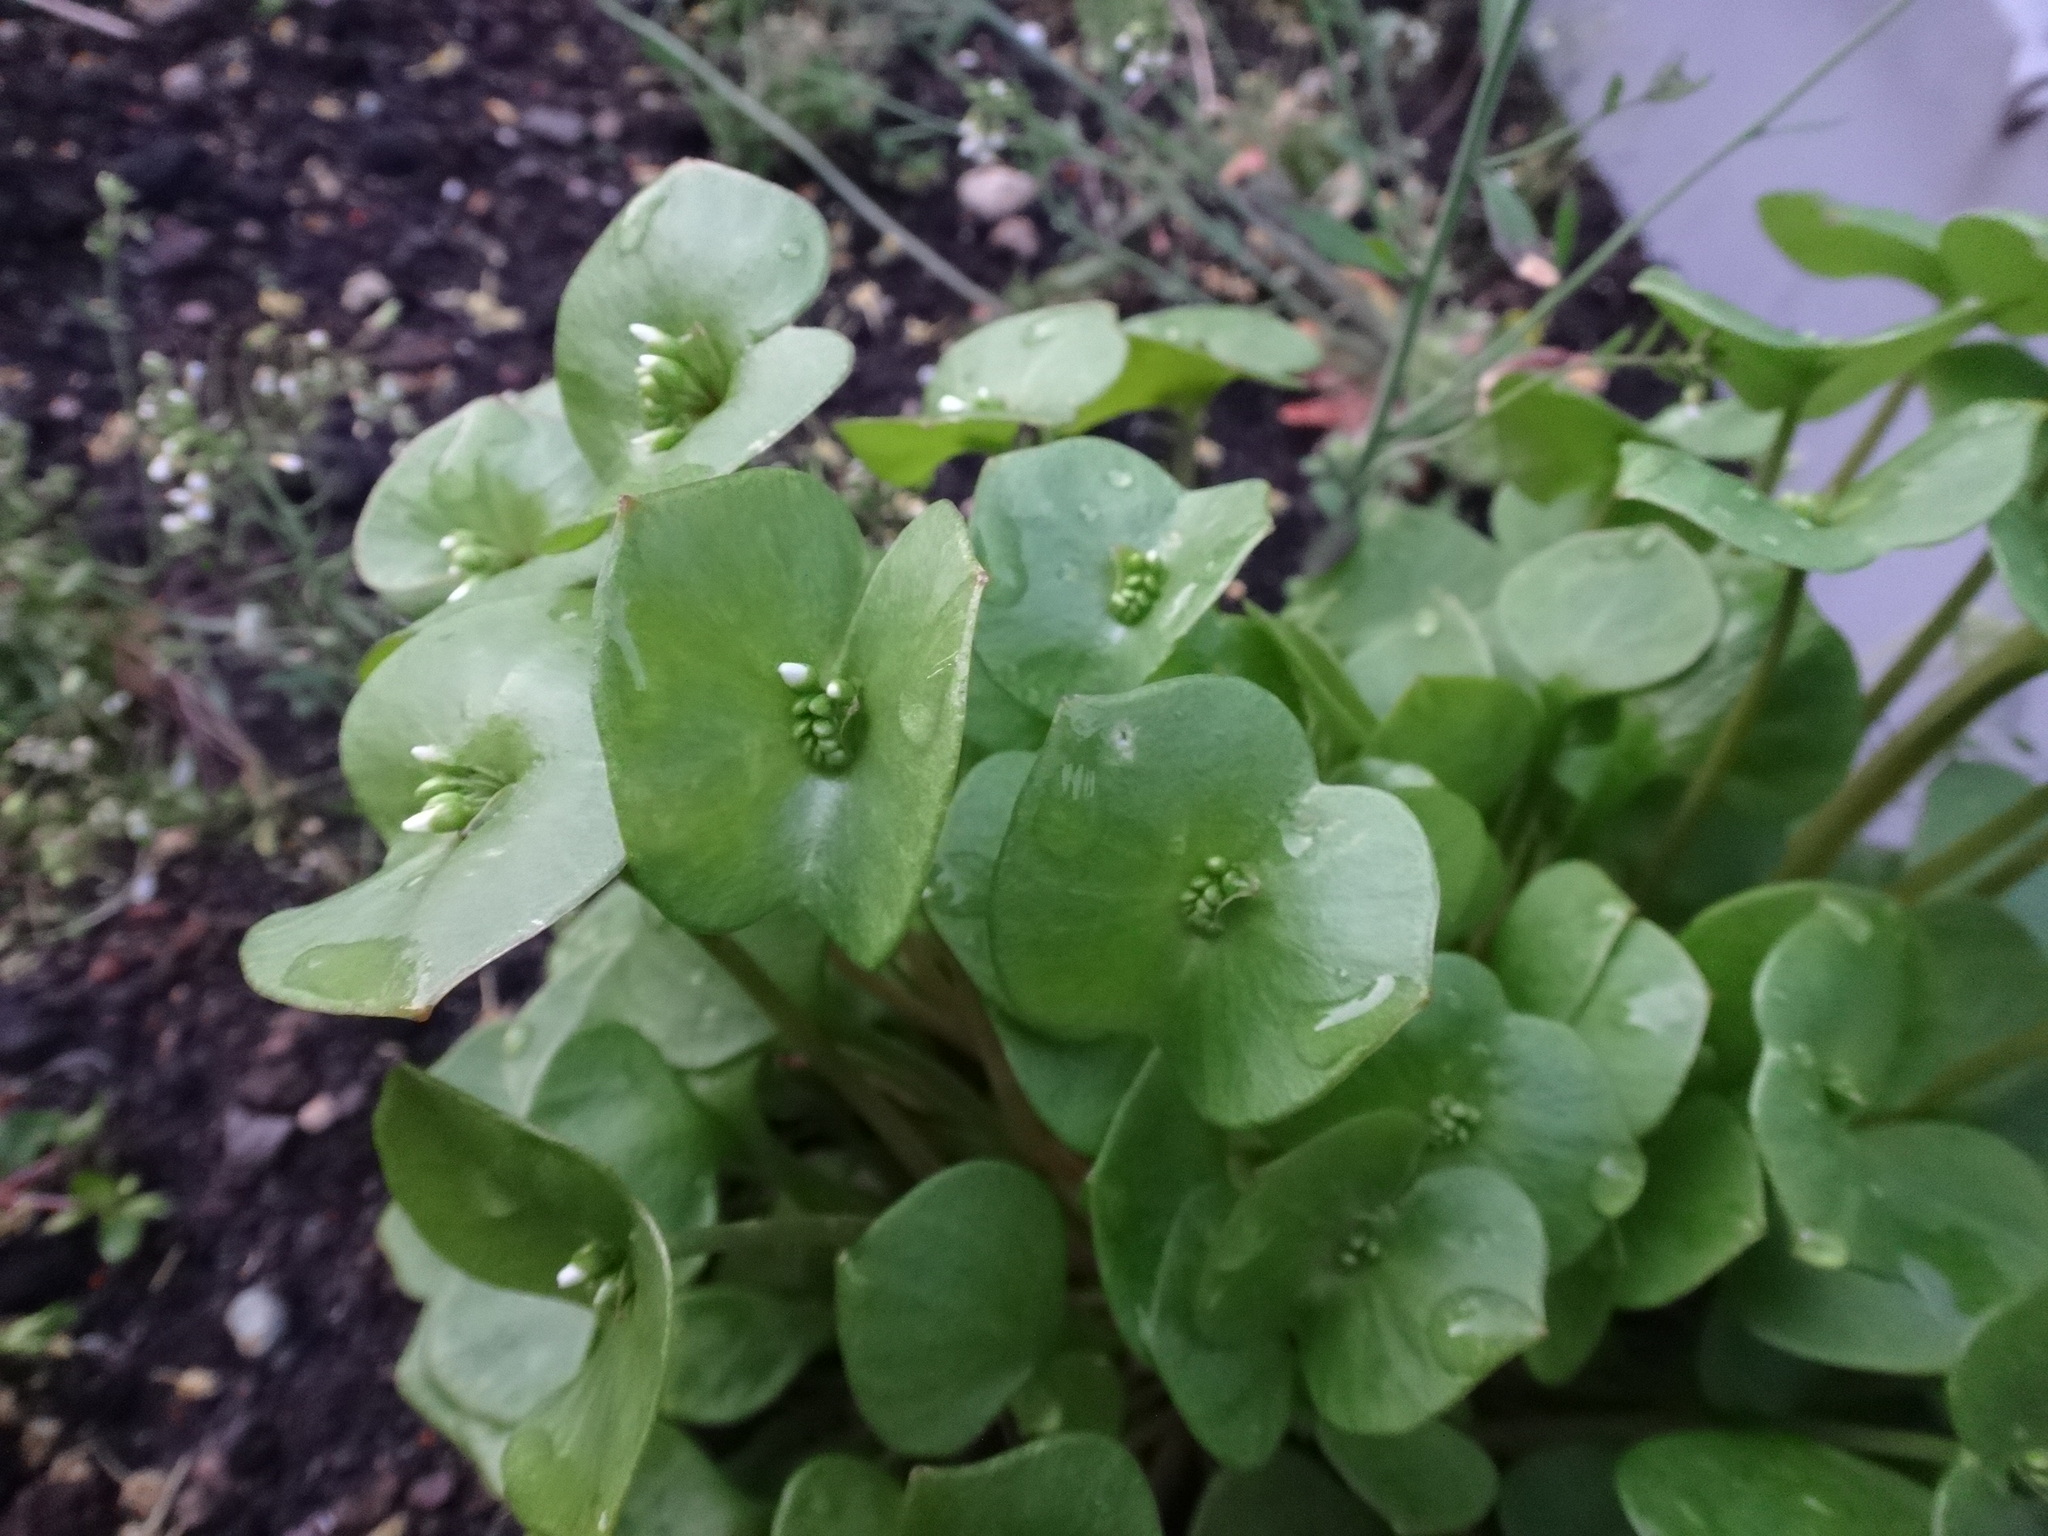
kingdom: Plantae
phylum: Tracheophyta
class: Magnoliopsida
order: Caryophyllales
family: Montiaceae
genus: Claytonia
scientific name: Claytonia perfoliata
